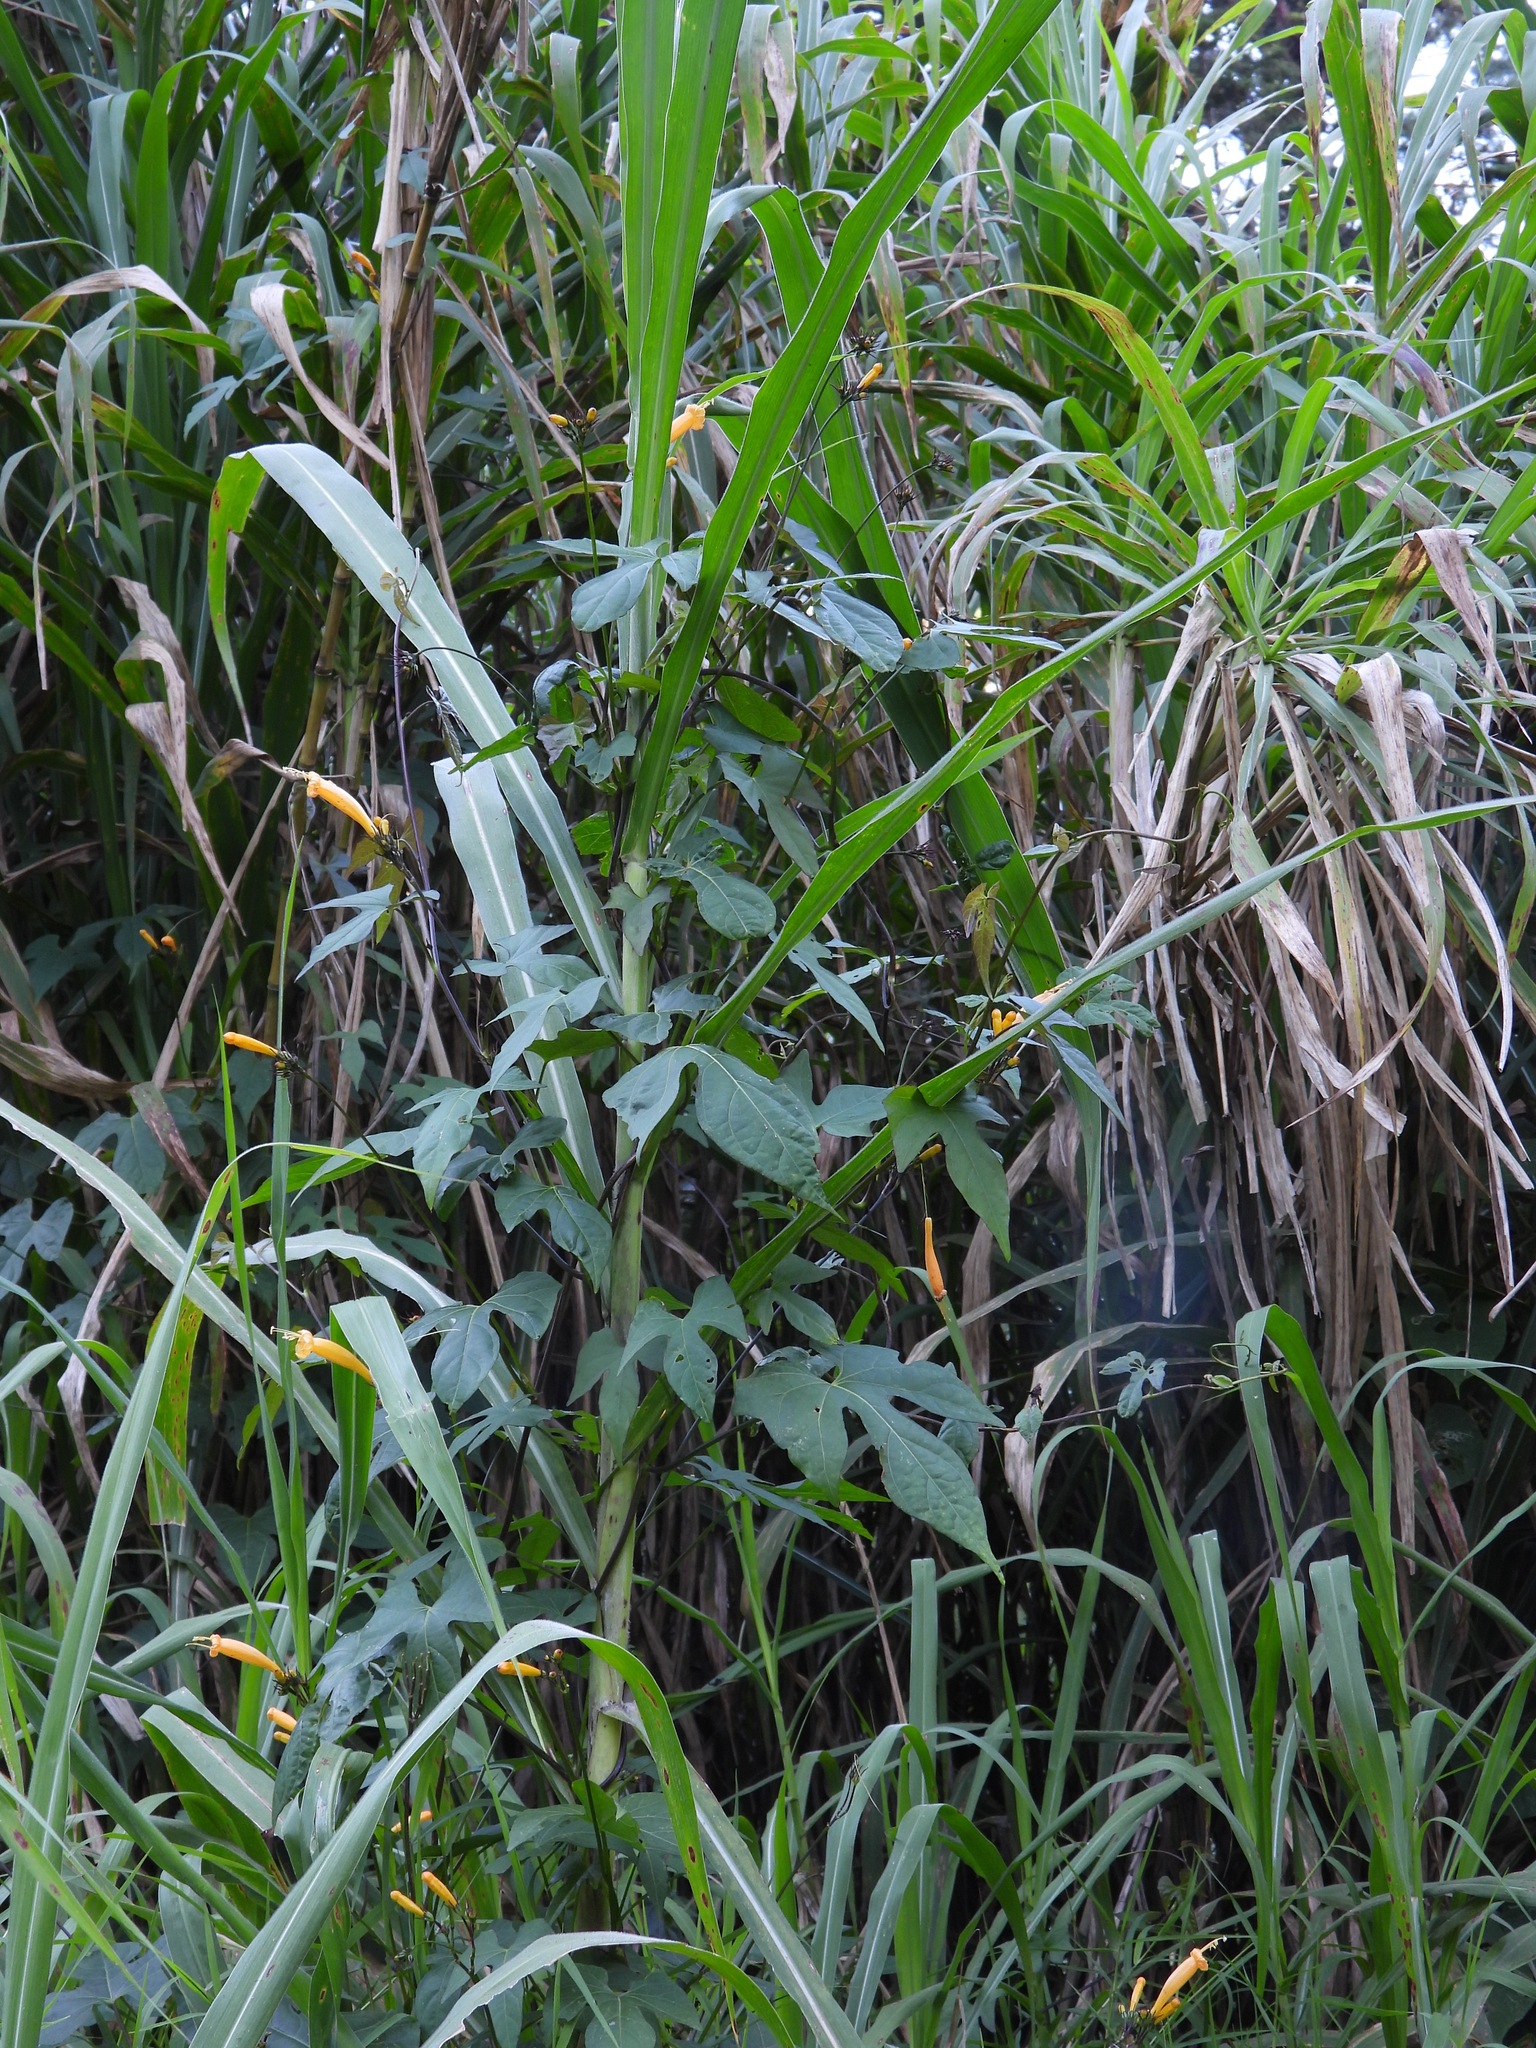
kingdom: Plantae
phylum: Tracheophyta
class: Magnoliopsida
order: Solanales
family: Convolvulaceae
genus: Ipomoea
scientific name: Ipomoea lutea
